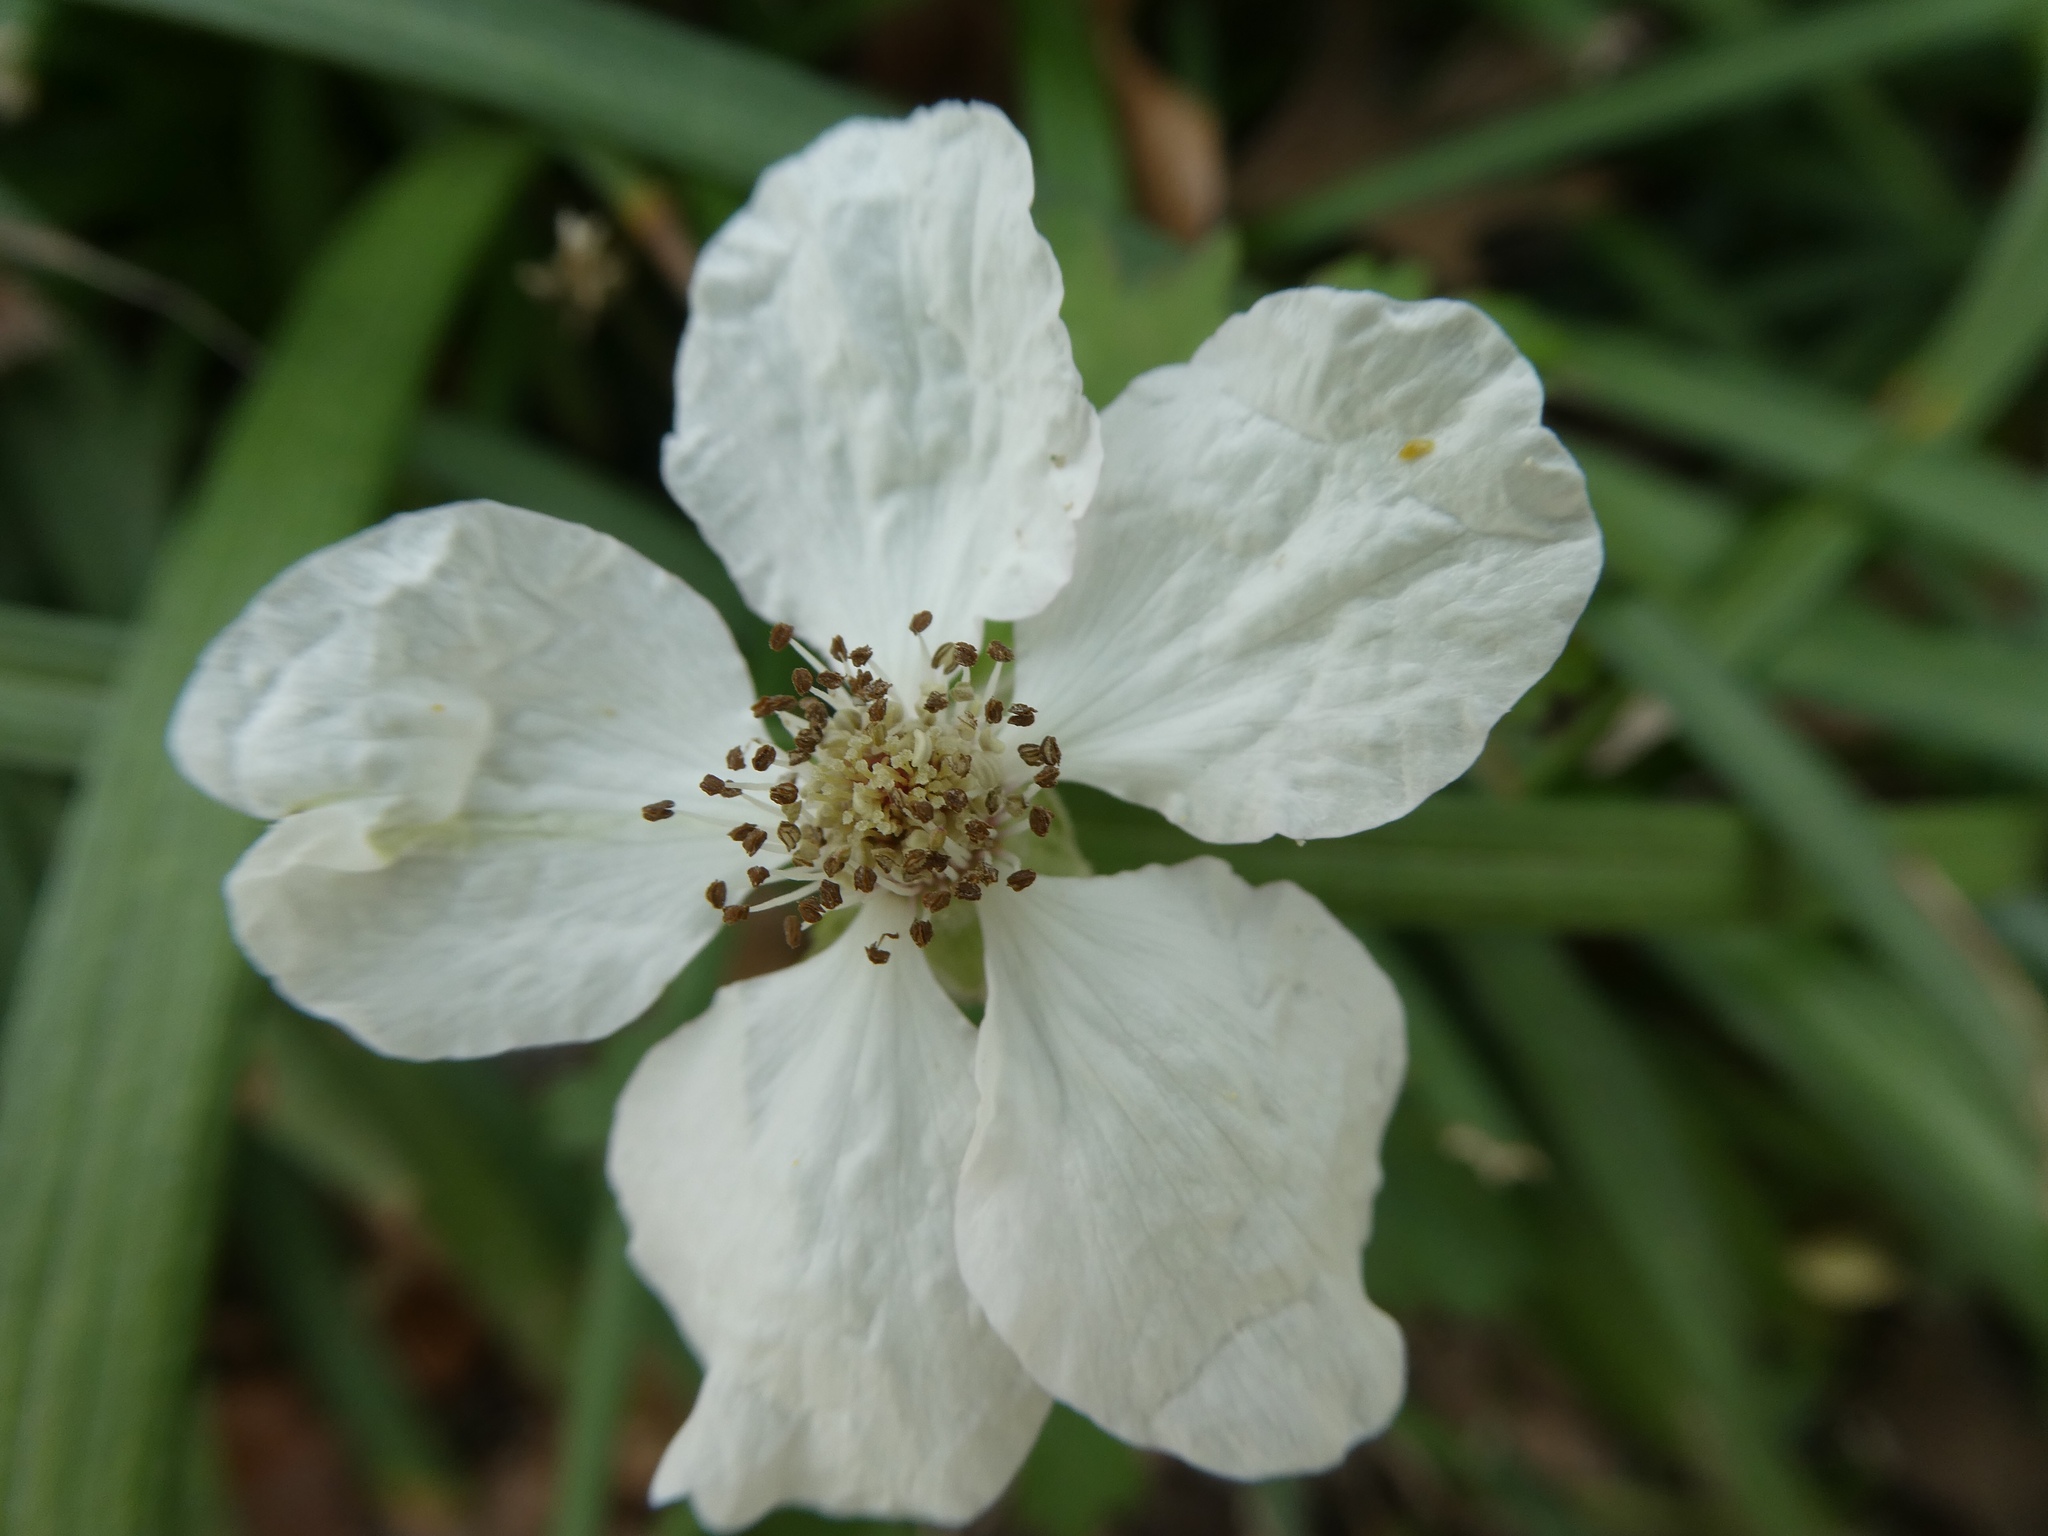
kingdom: Plantae
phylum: Tracheophyta
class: Magnoliopsida
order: Rosales
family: Rosaceae
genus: Rubus
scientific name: Rubus trivialis
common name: Southern dewberry
